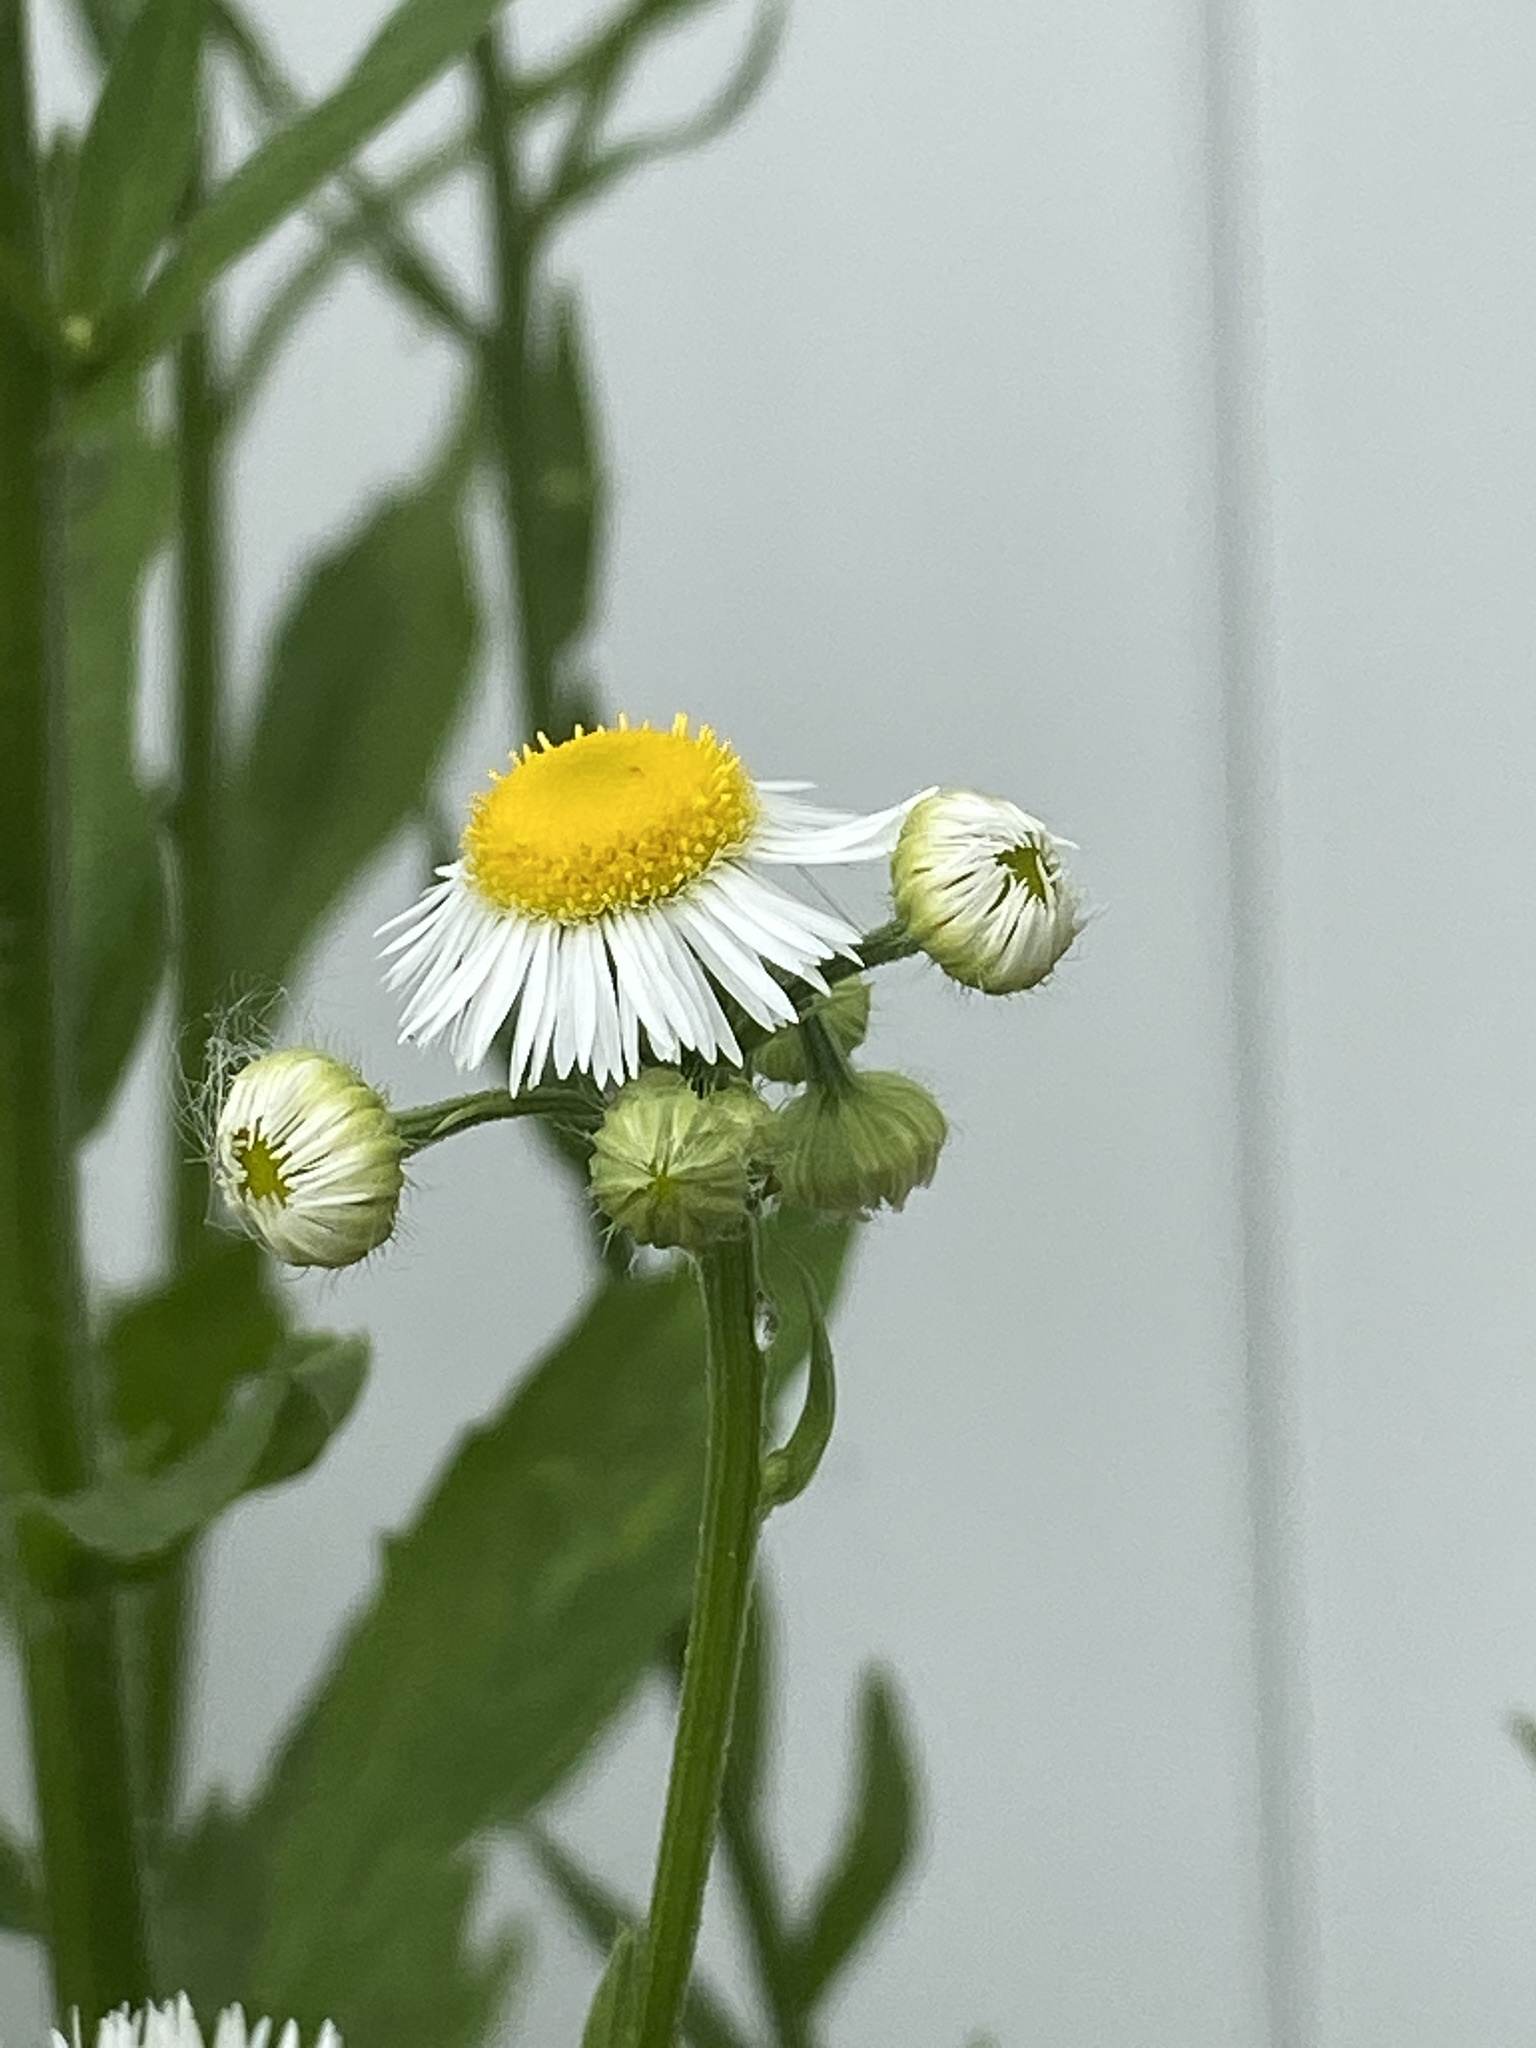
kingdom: Plantae
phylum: Tracheophyta
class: Magnoliopsida
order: Asterales
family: Asteraceae
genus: Erigeron
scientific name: Erigeron annuus
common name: Tall fleabane
